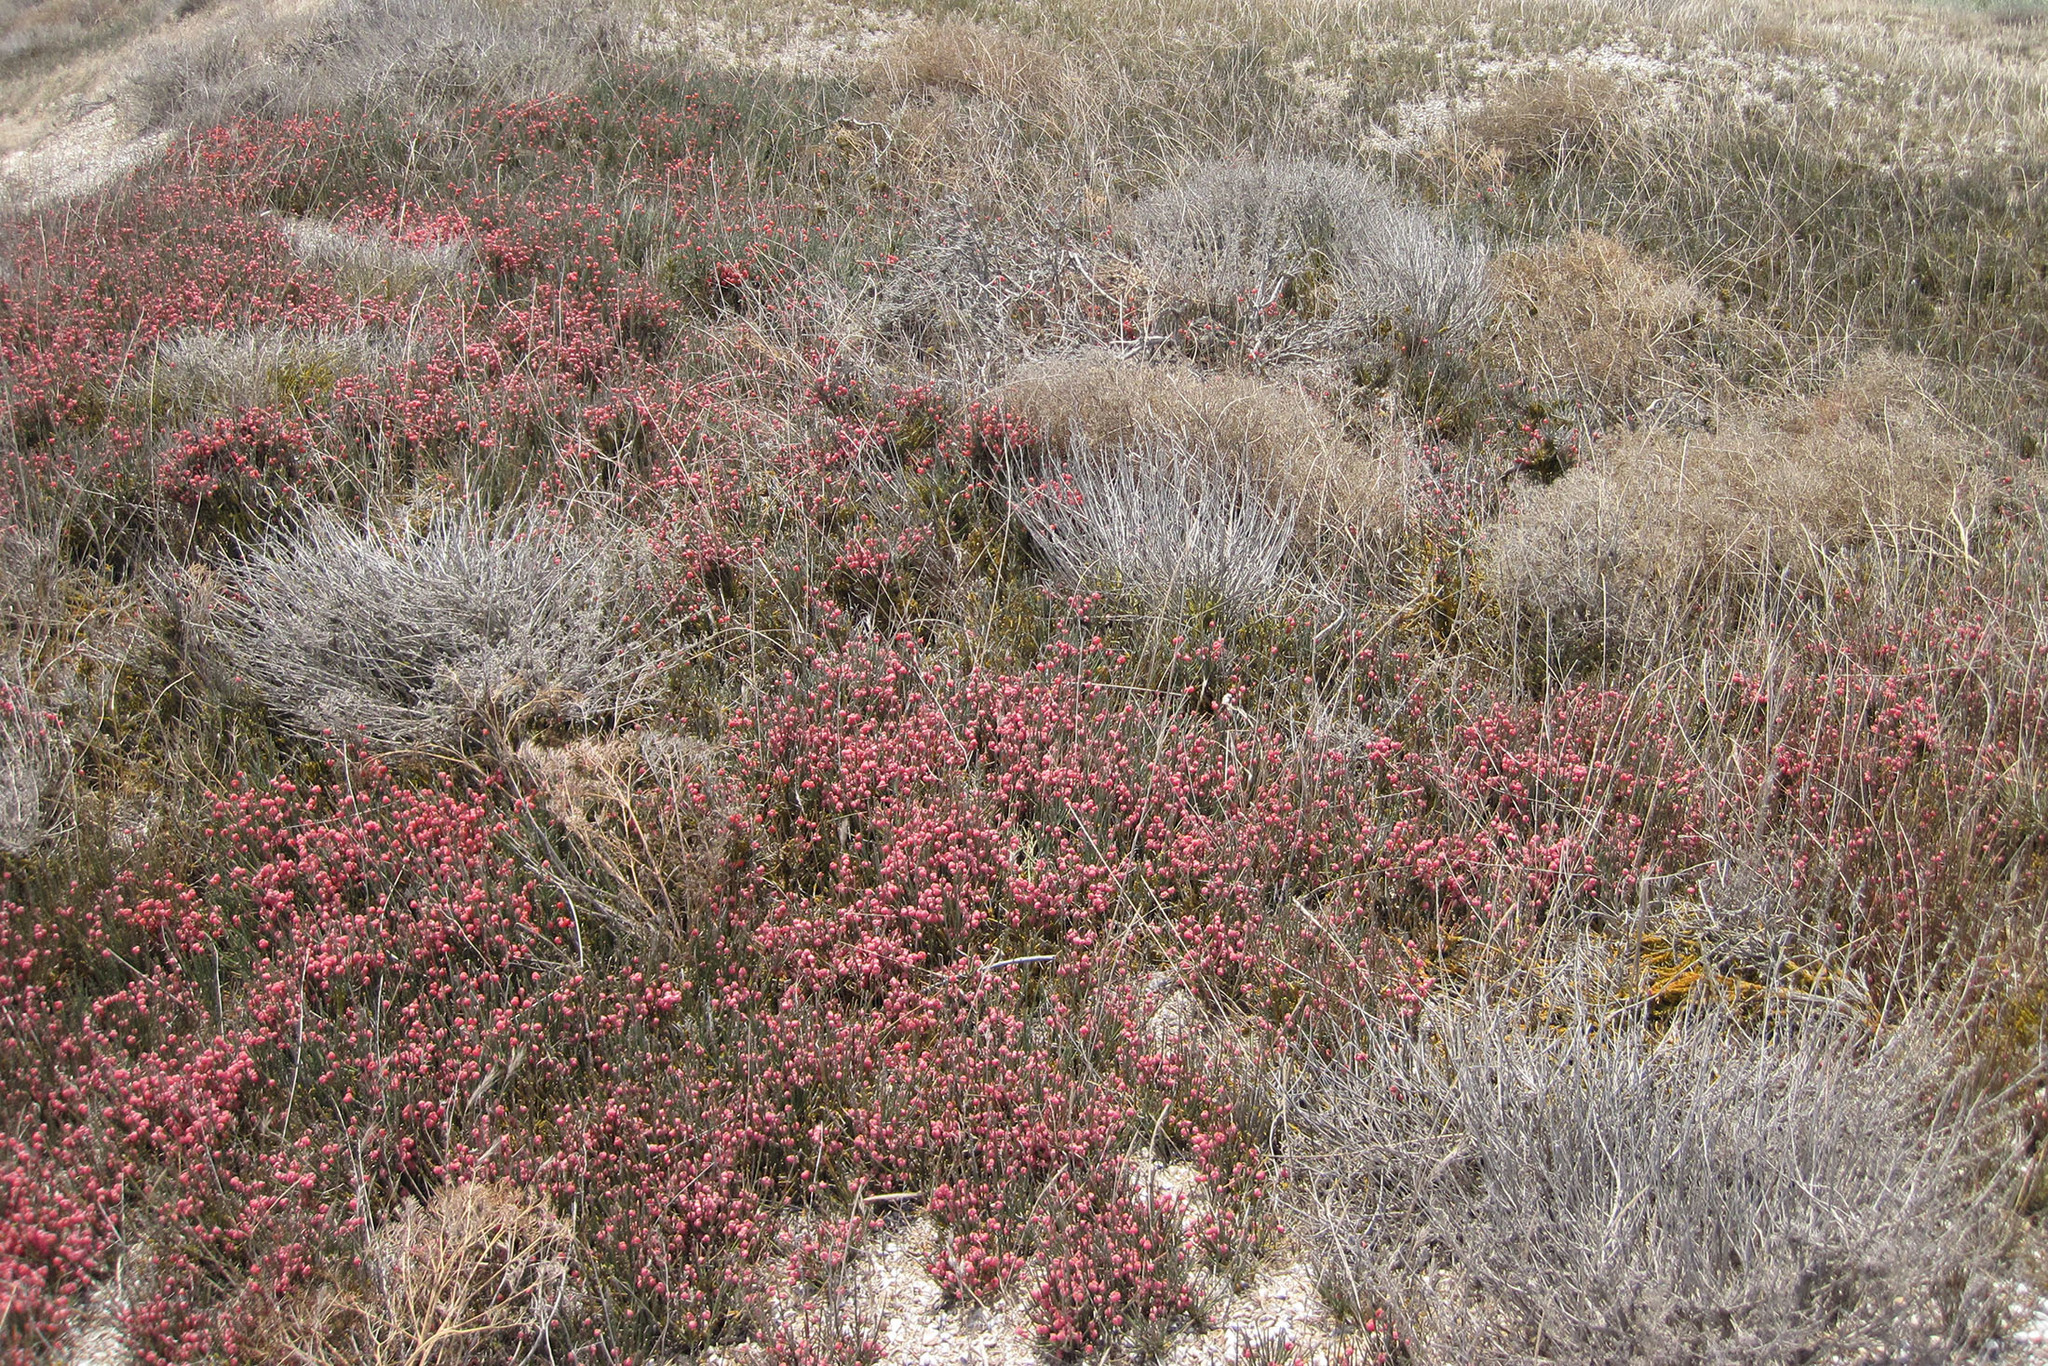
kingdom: Plantae
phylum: Tracheophyta
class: Gnetopsida
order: Ephedrales
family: Ephedraceae
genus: Ephedra
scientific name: Ephedra distachya
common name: Sea grape
